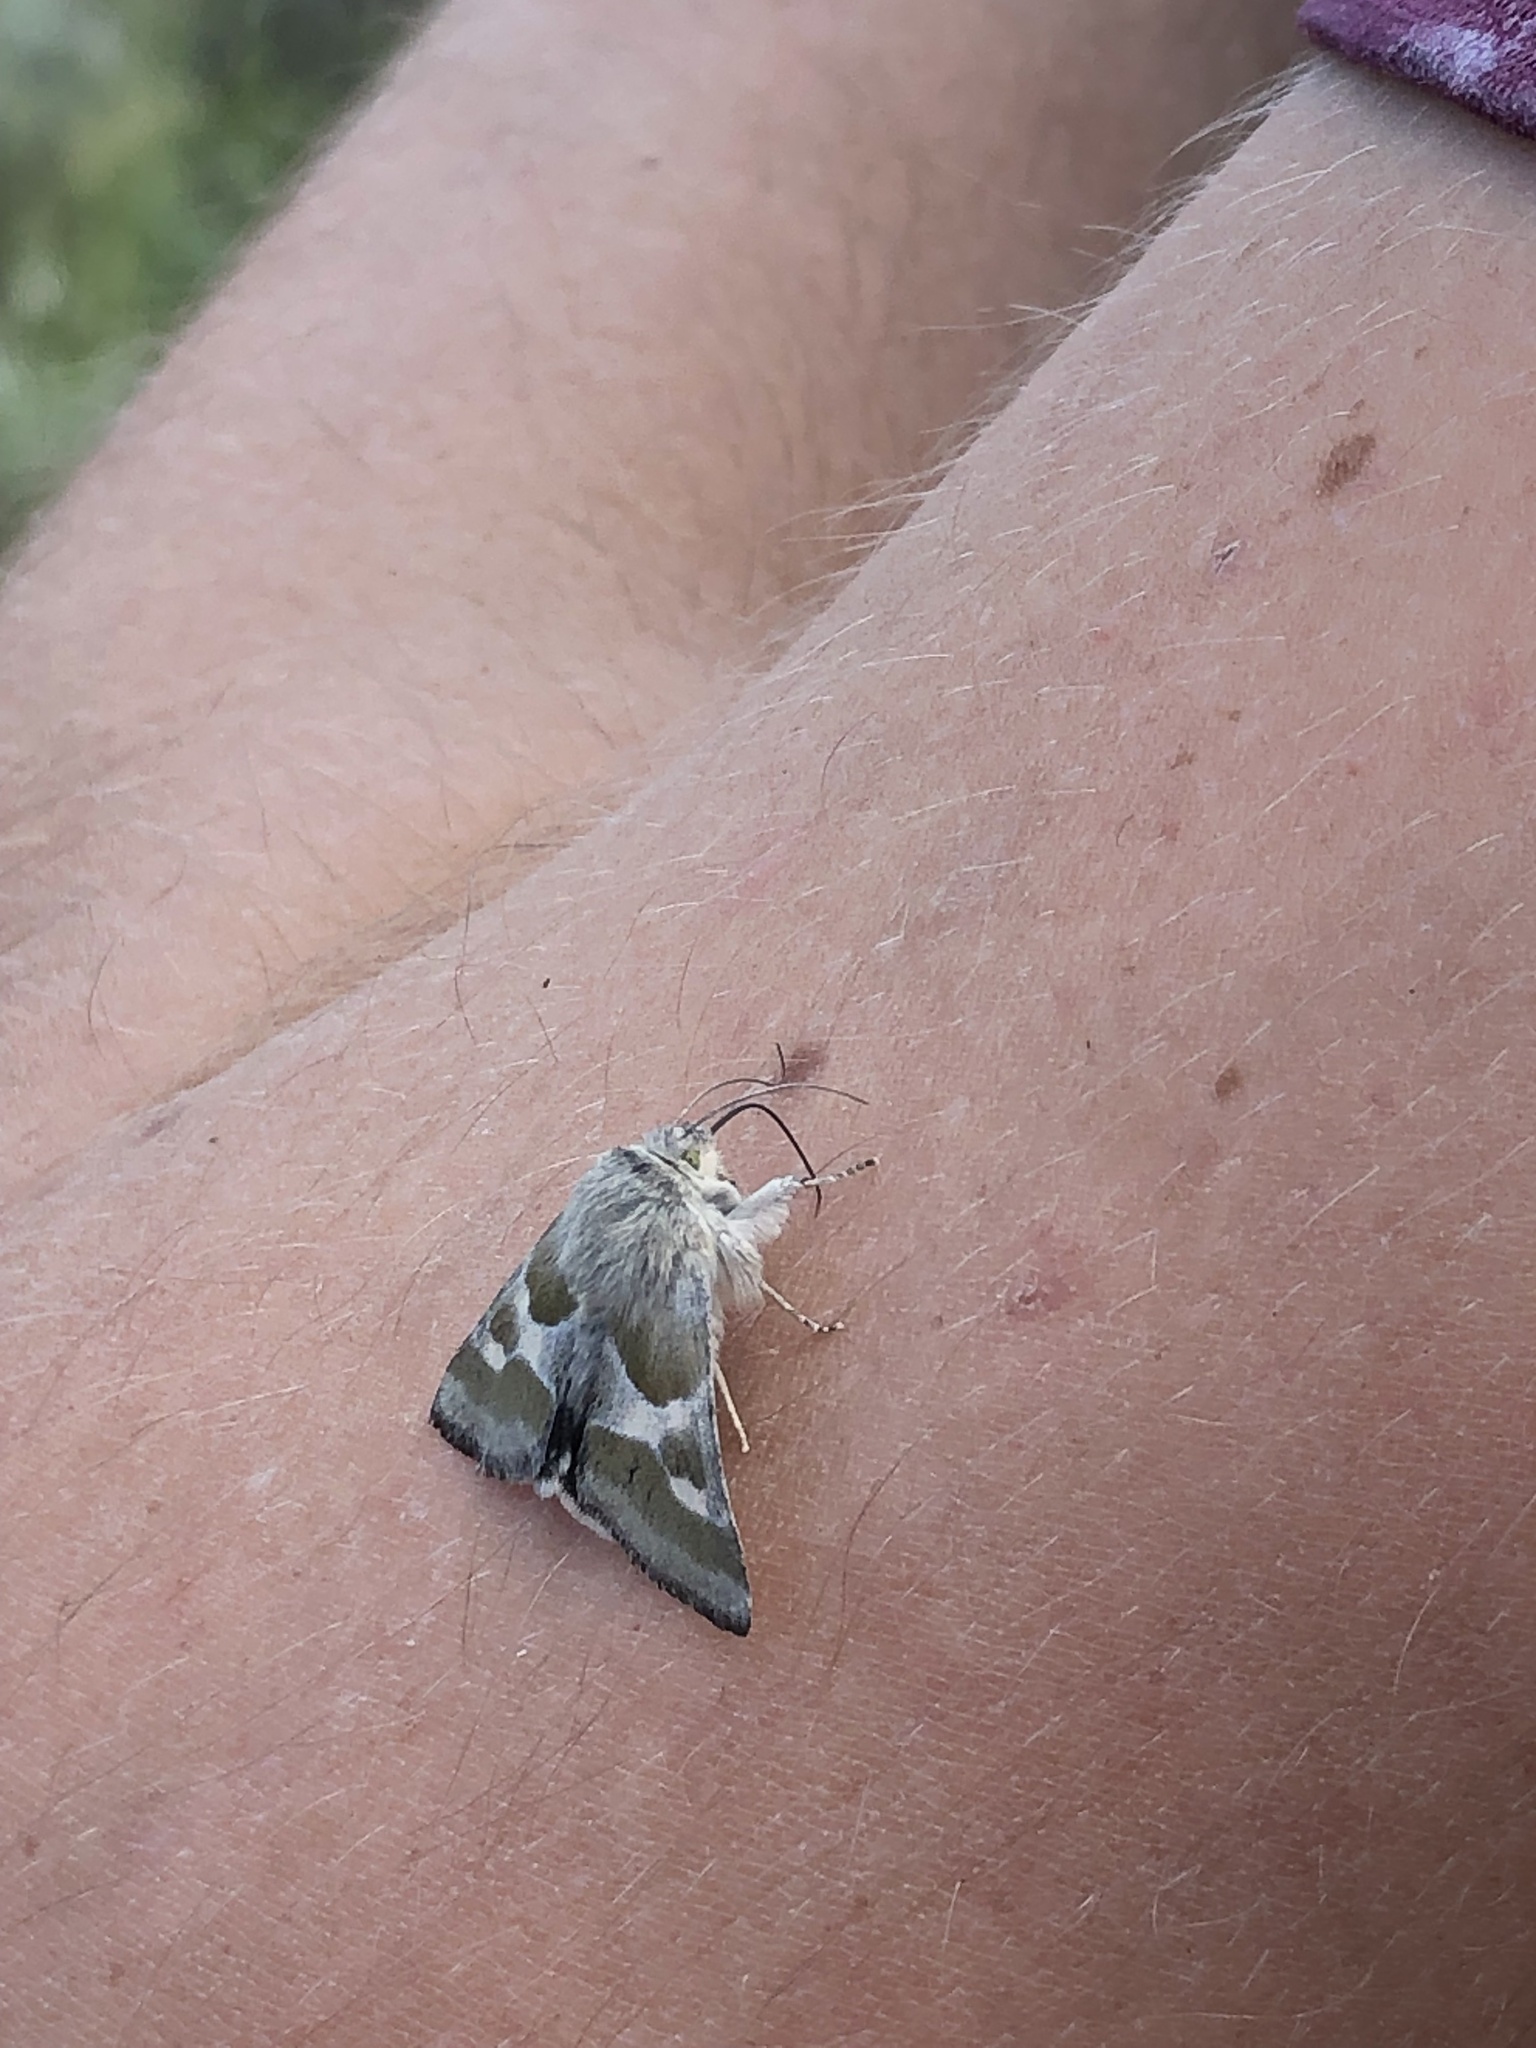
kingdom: Animalia
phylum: Arthropoda
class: Insecta
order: Lepidoptera
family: Noctuidae
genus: Schinia
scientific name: Schinia suetus
